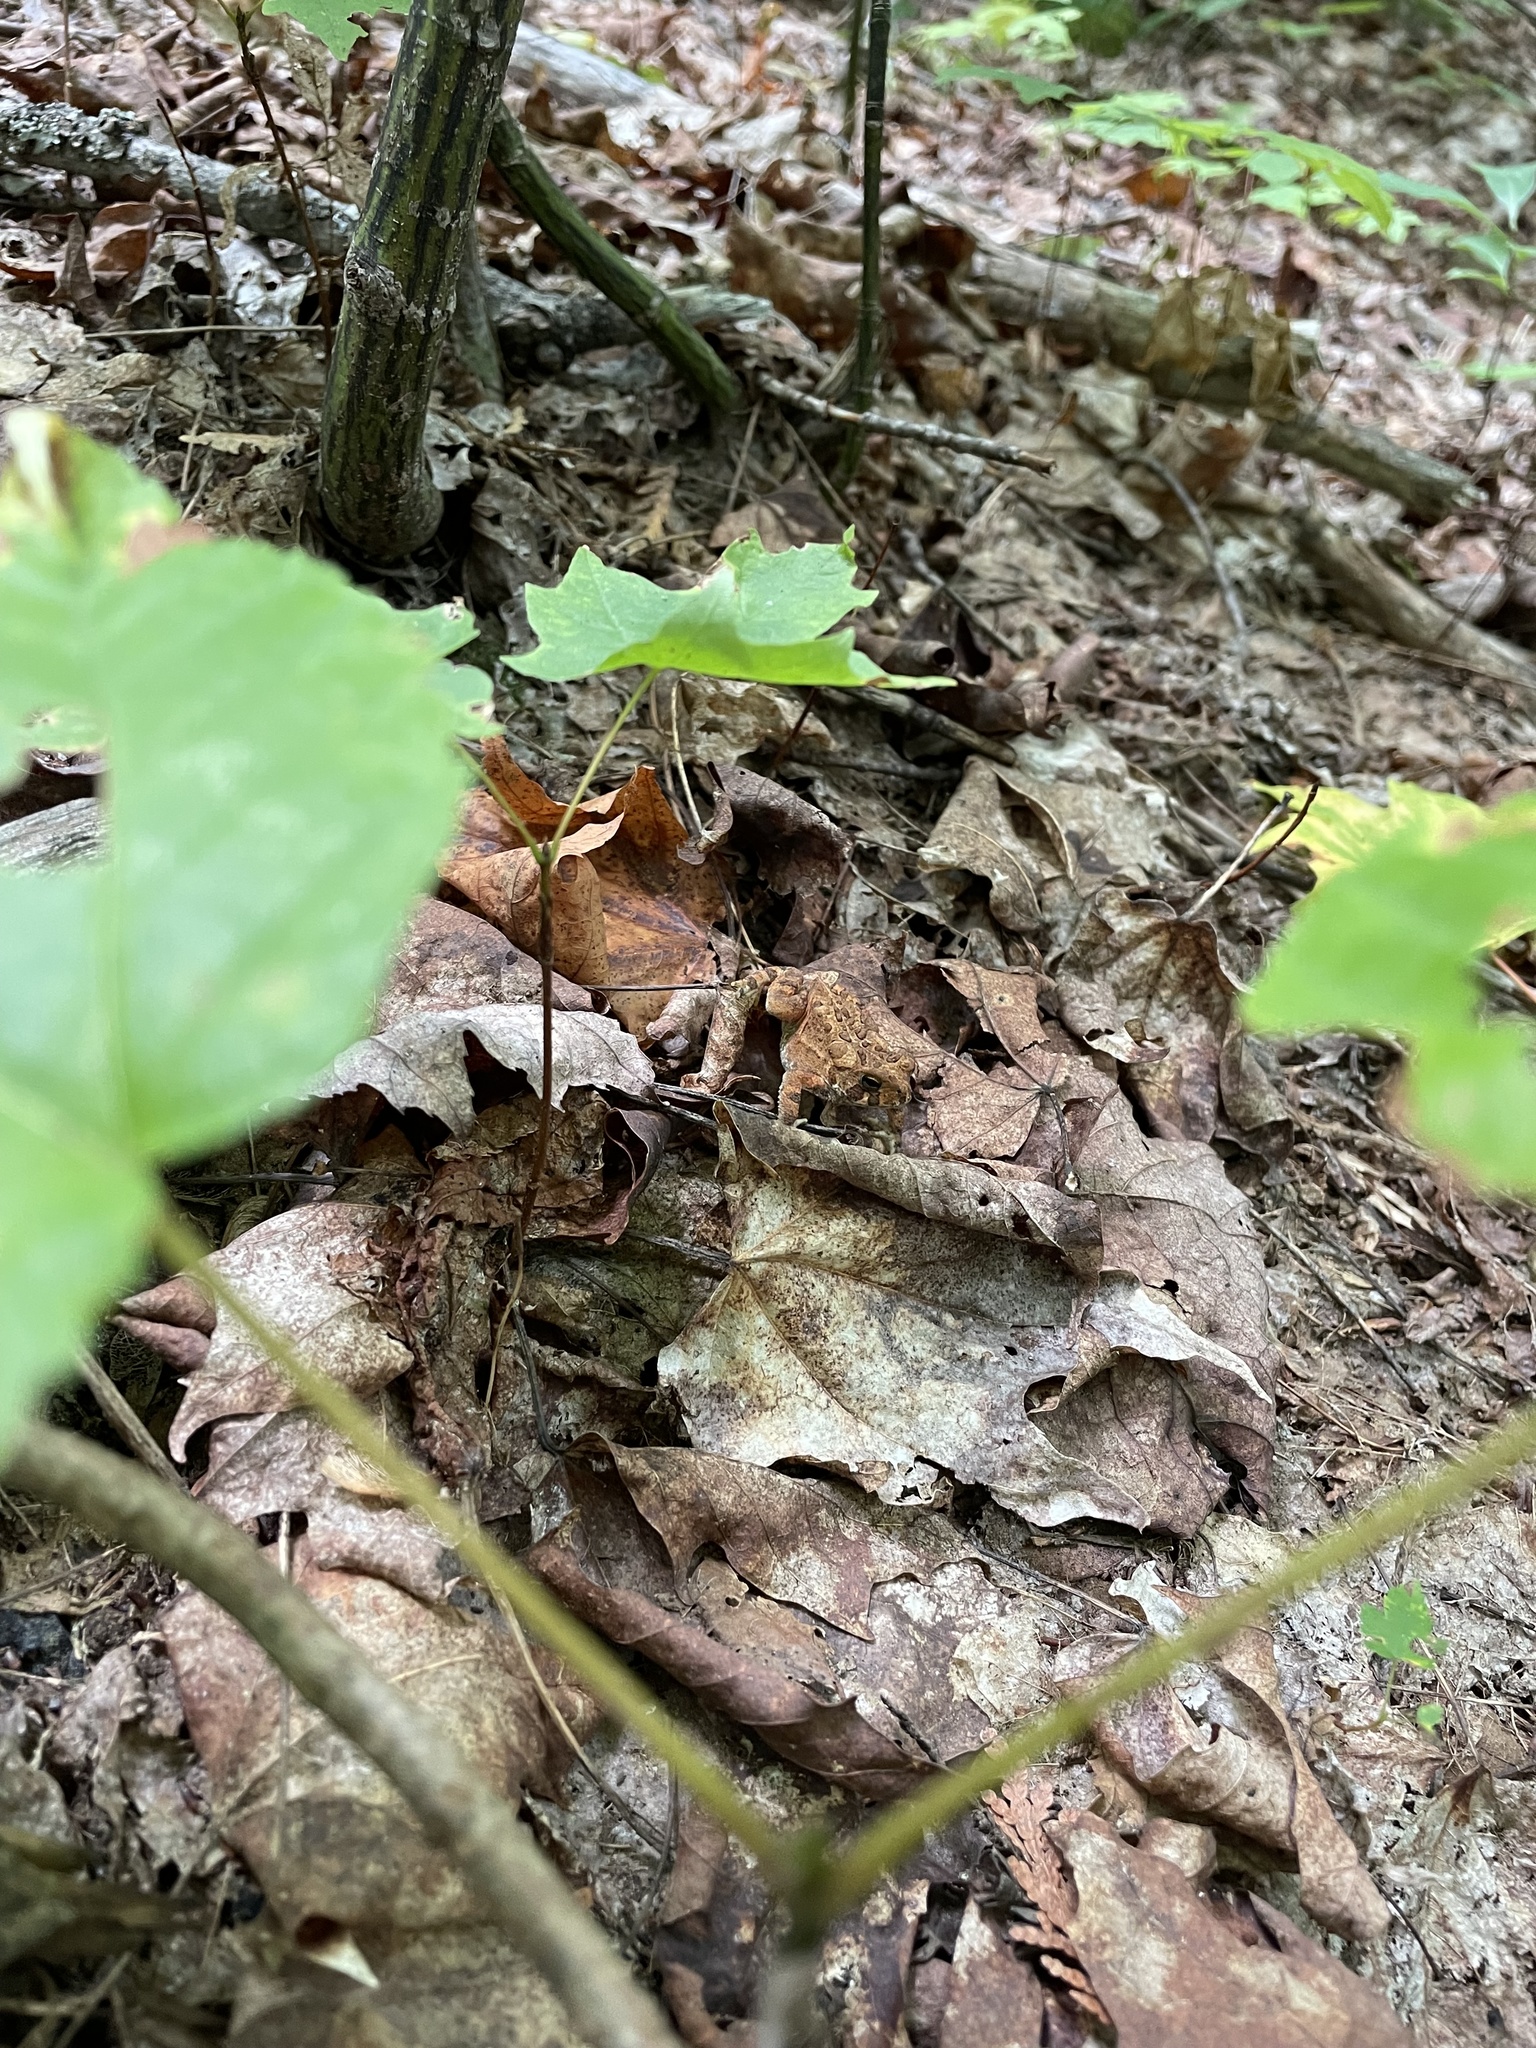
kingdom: Animalia
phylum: Chordata
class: Amphibia
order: Anura
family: Bufonidae
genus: Anaxyrus
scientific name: Anaxyrus americanus
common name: American toad
